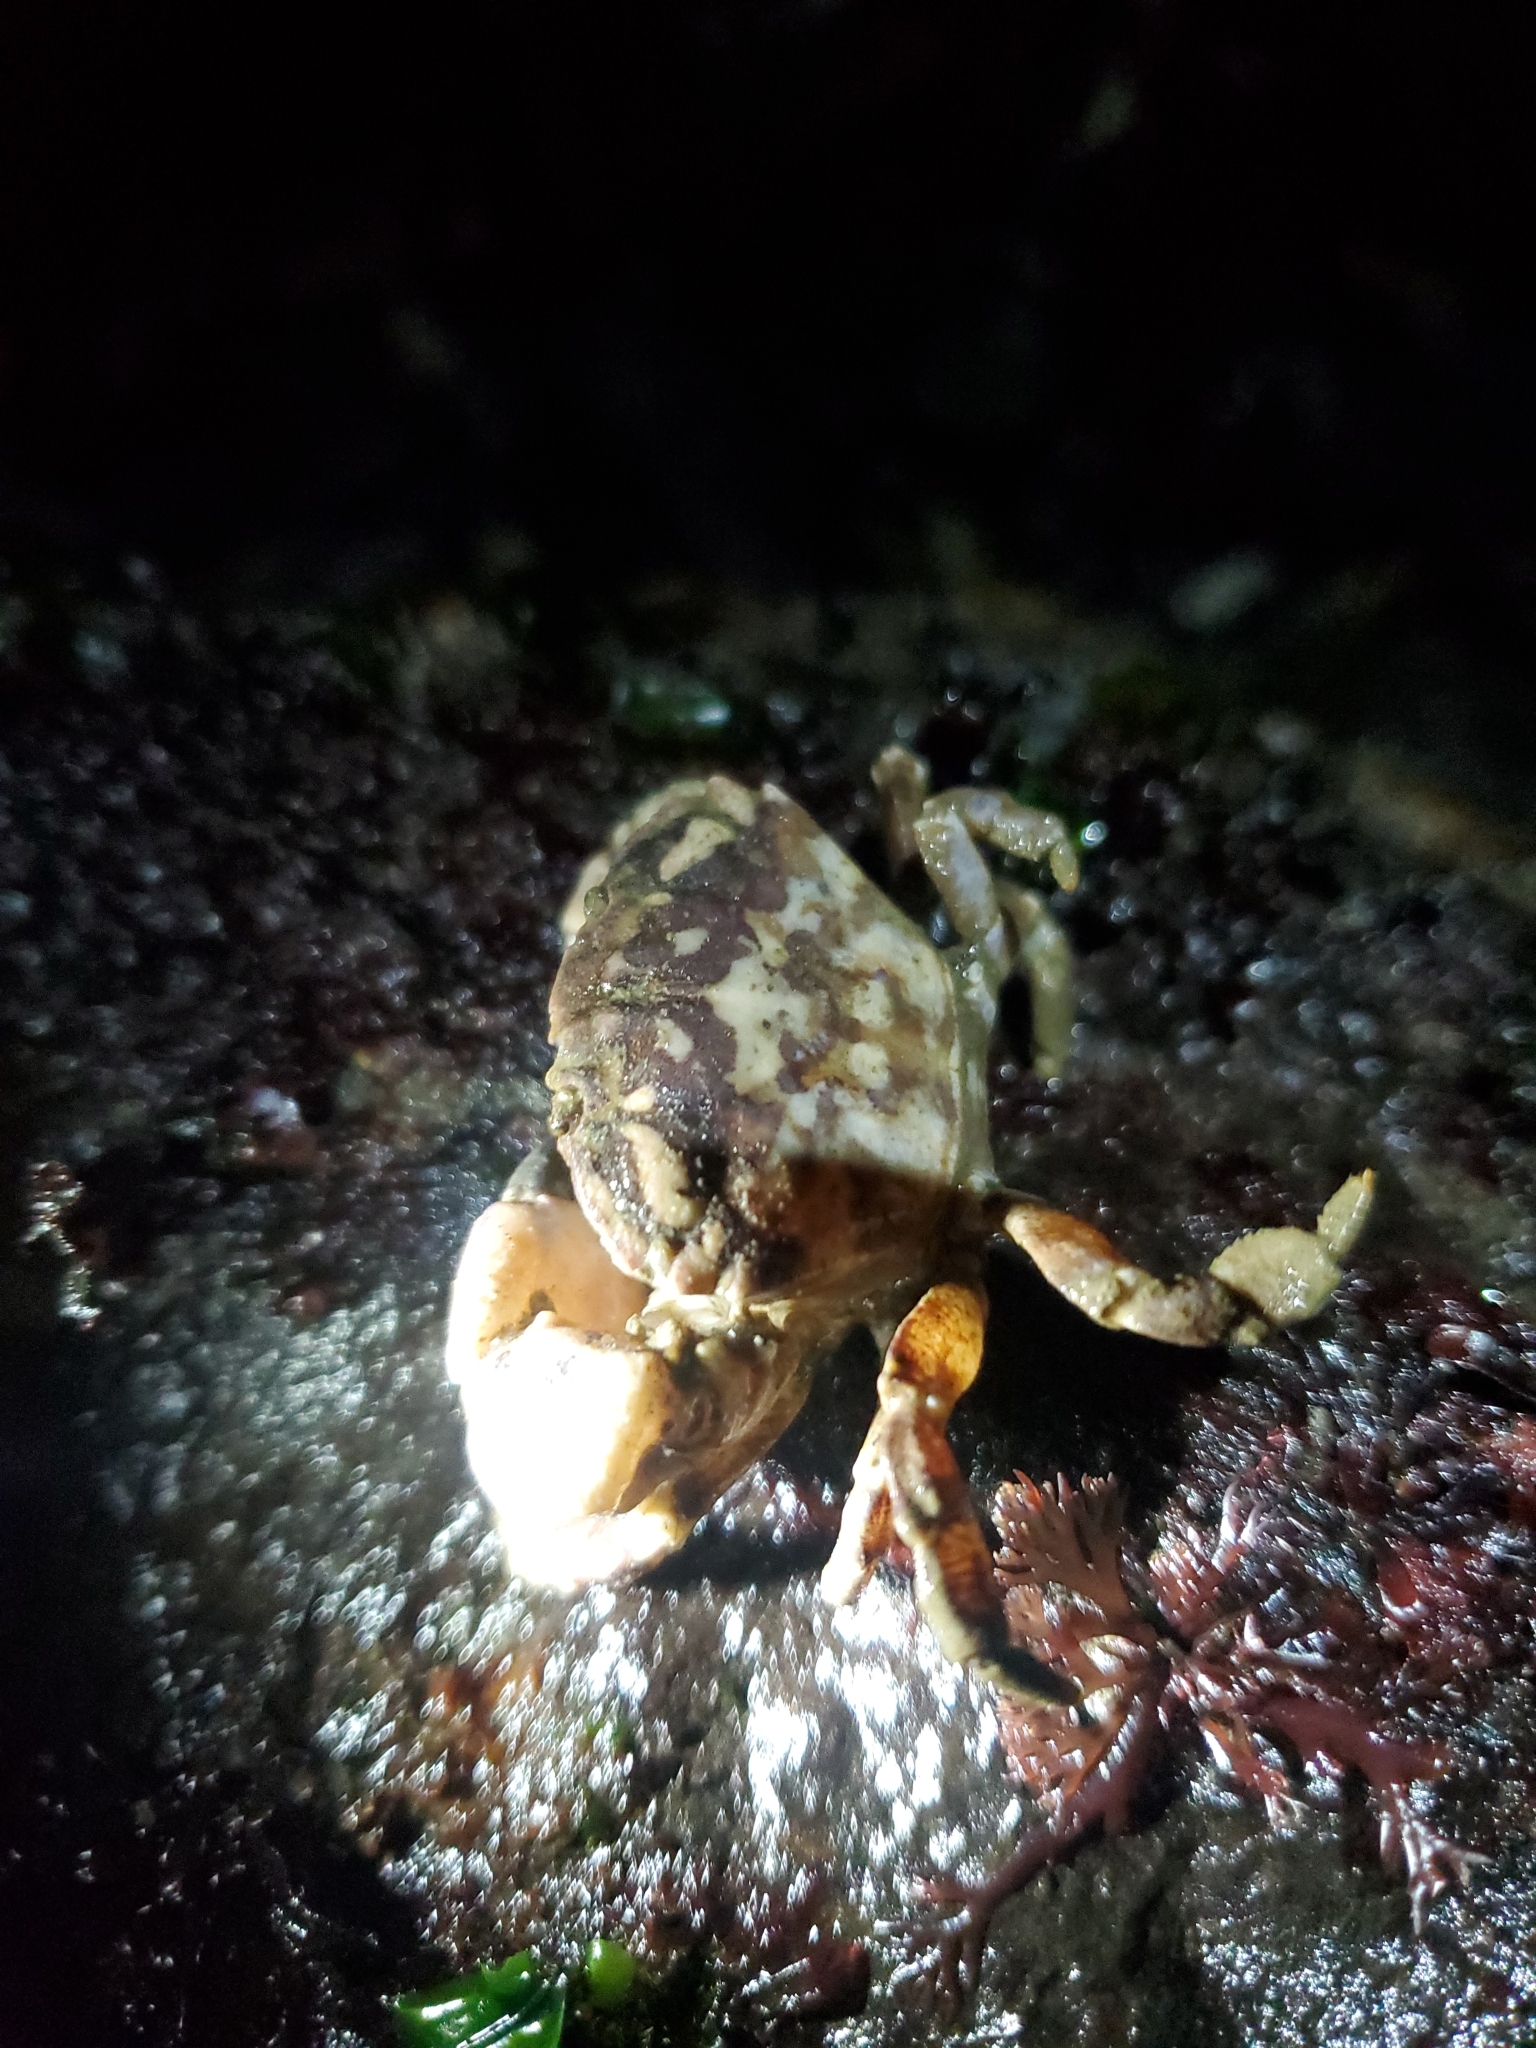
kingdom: Animalia
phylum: Arthropoda
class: Malacostraca
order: Decapoda
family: Panopeidae
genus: Lophopanopeus
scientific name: Lophopanopeus bellus
